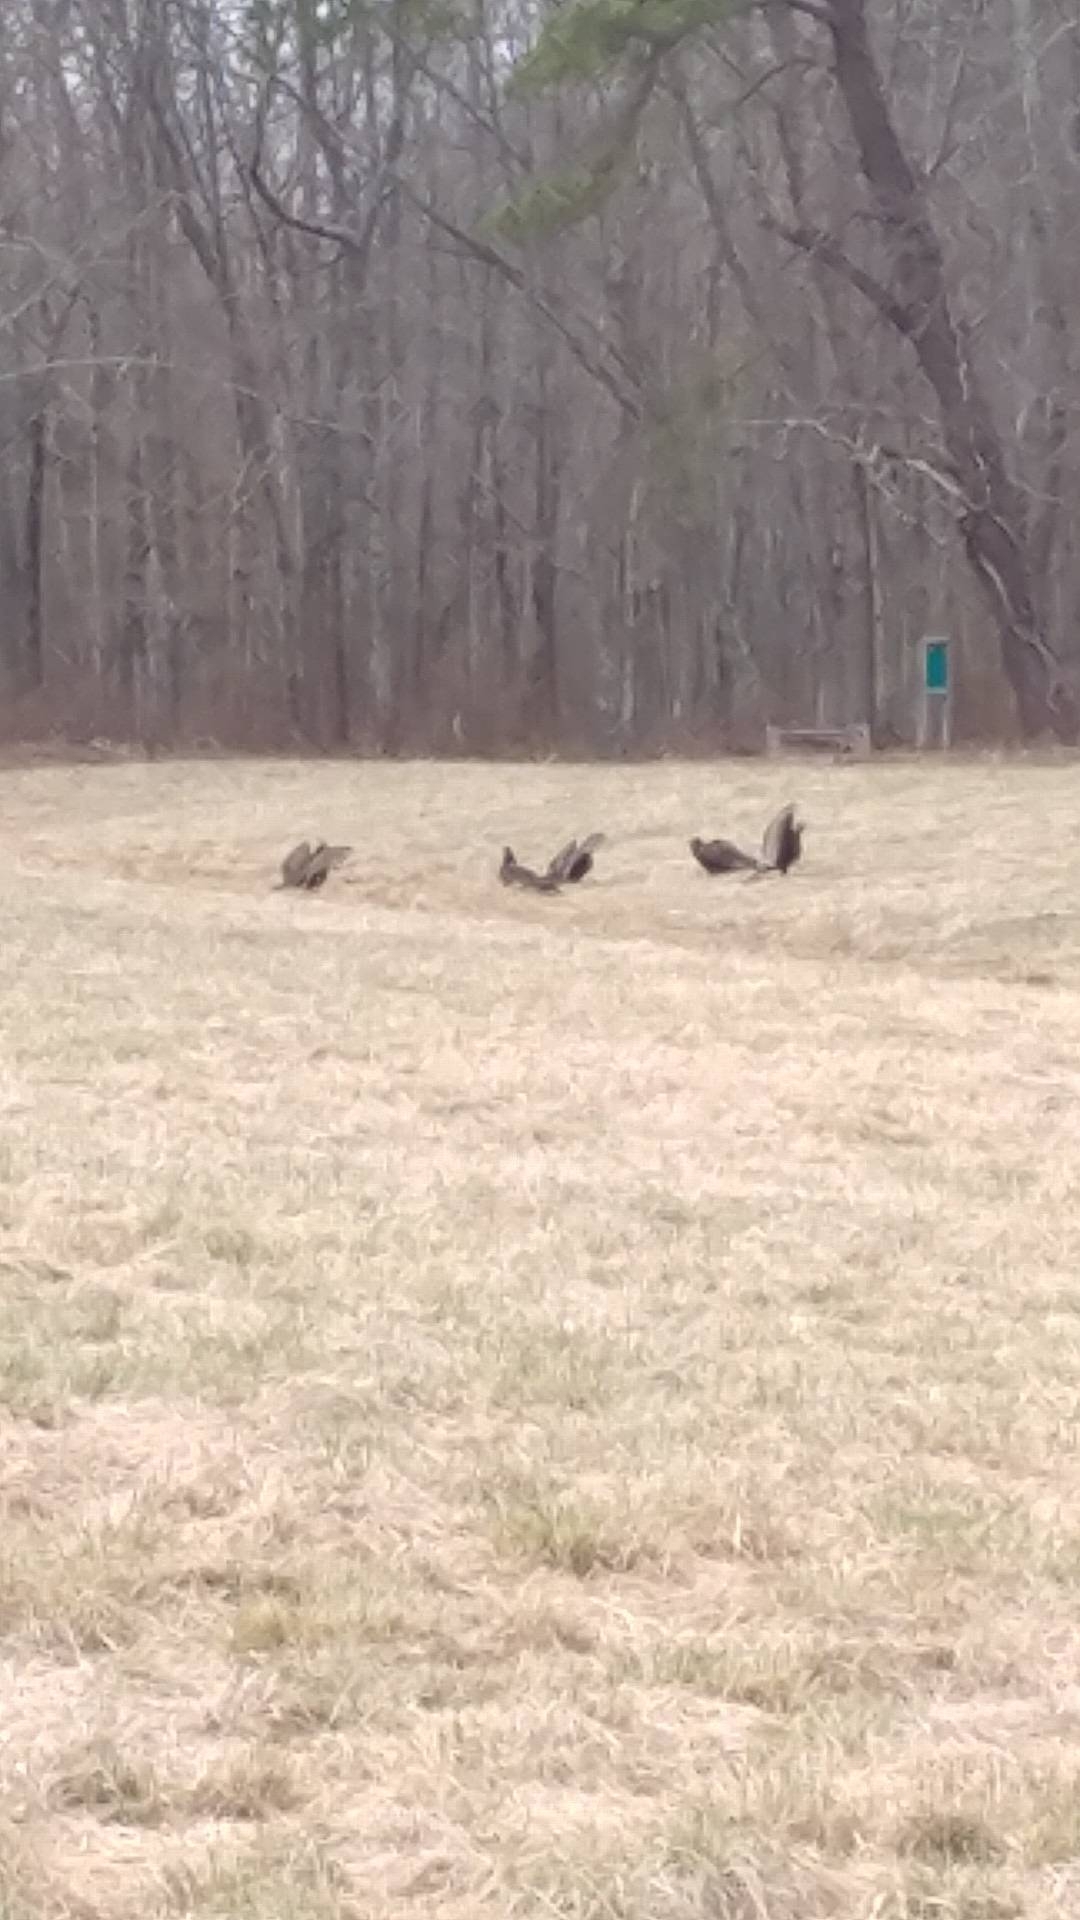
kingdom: Animalia
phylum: Chordata
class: Aves
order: Accipitriformes
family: Cathartidae
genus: Cathartes
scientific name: Cathartes aura
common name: Turkey vulture
